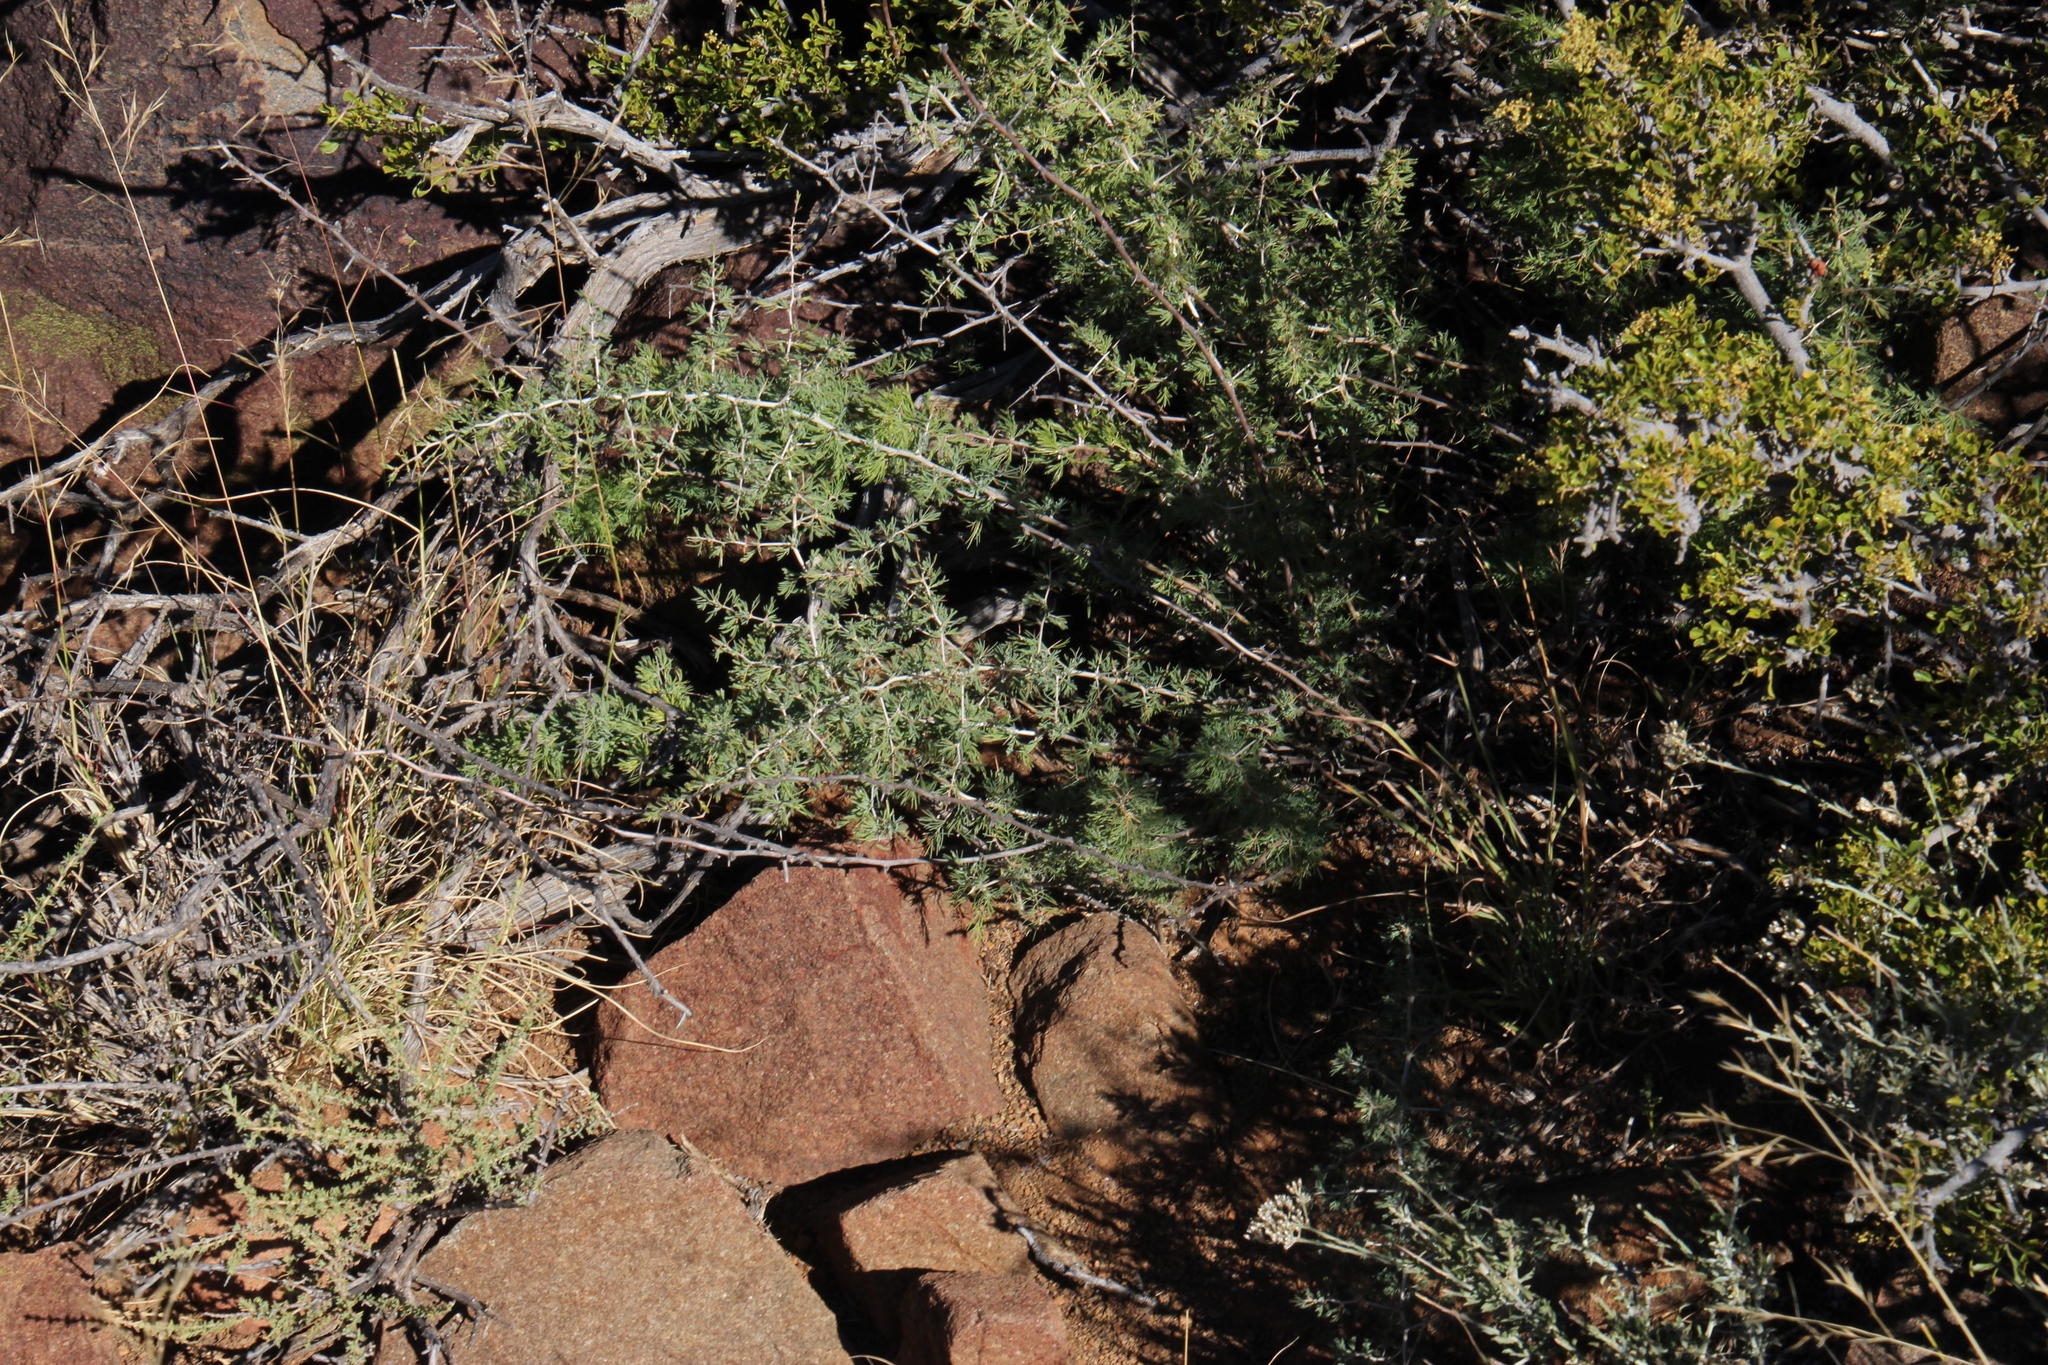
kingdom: Plantae
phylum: Tracheophyta
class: Liliopsida
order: Asparagales
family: Asparagaceae
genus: Asparagus
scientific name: Asparagus suaveolens
